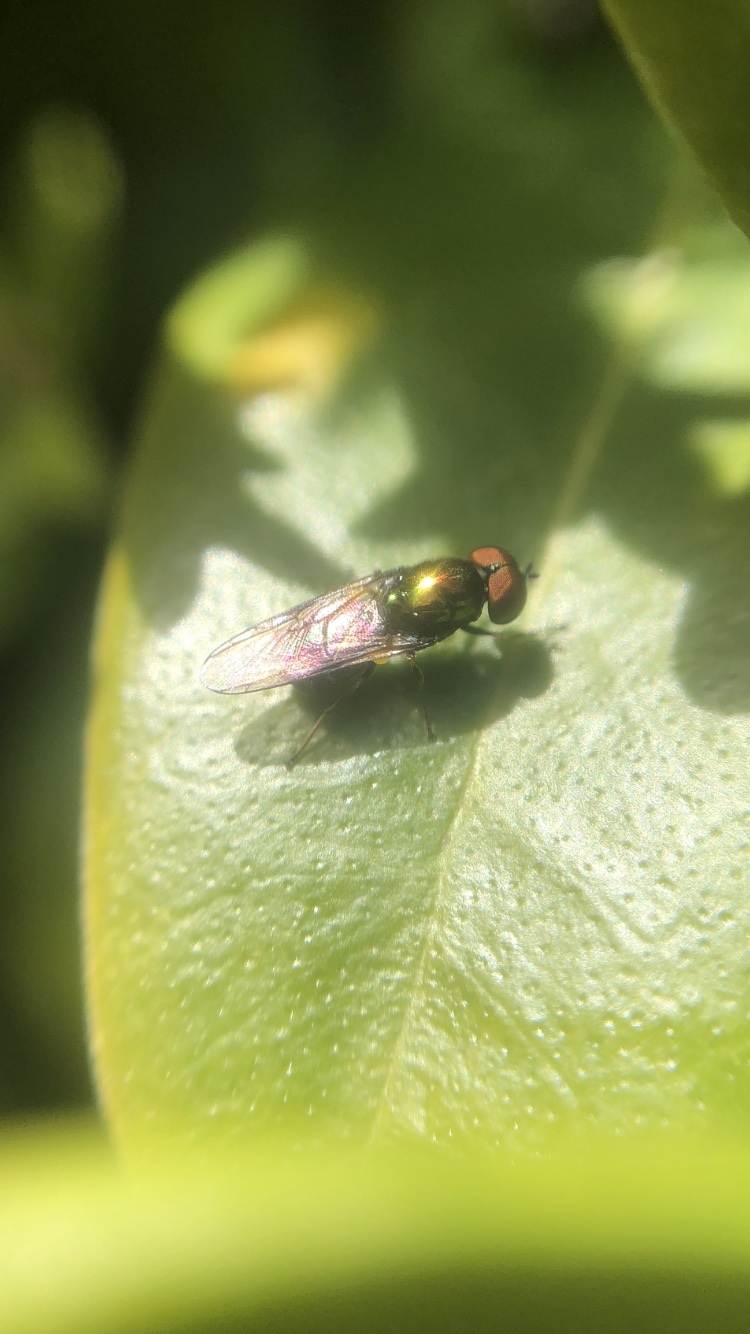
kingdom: Animalia
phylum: Arthropoda
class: Insecta
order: Diptera
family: Stratiomyidae
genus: Microchrysa
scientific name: Microchrysa polita
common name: Black-horned gem
